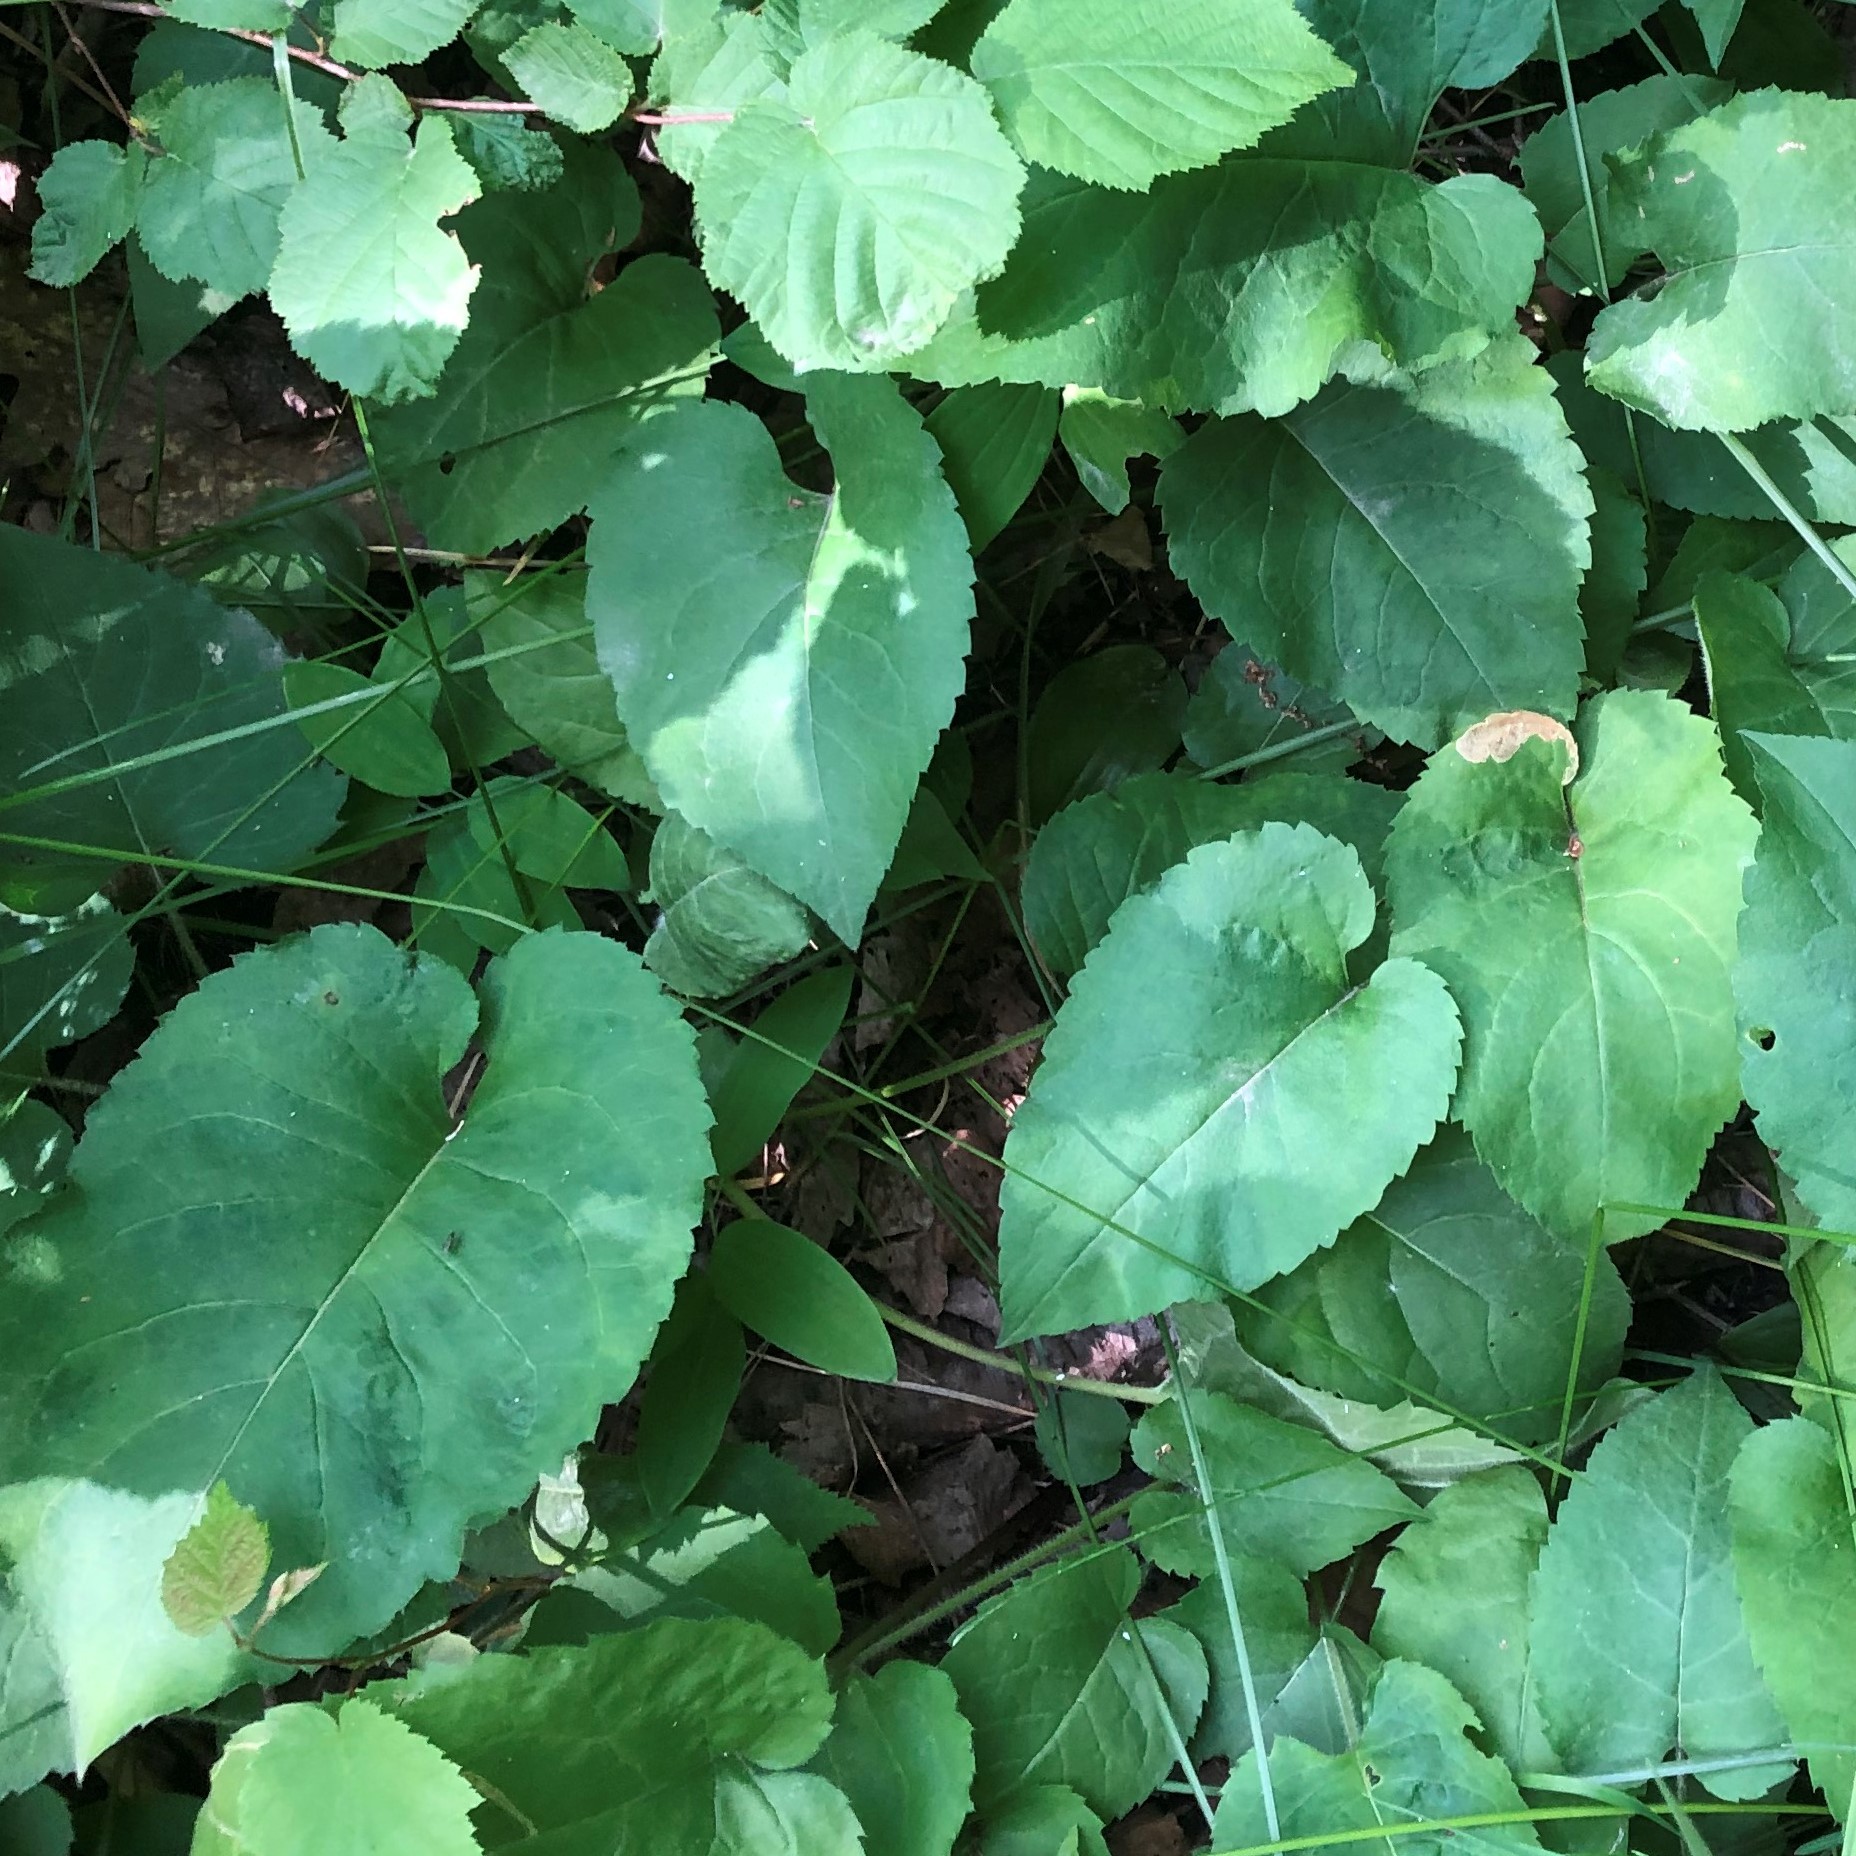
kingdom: Plantae
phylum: Tracheophyta
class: Magnoliopsida
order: Asterales
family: Asteraceae
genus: Eurybia
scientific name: Eurybia macrophylla
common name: Big-leaved aster
